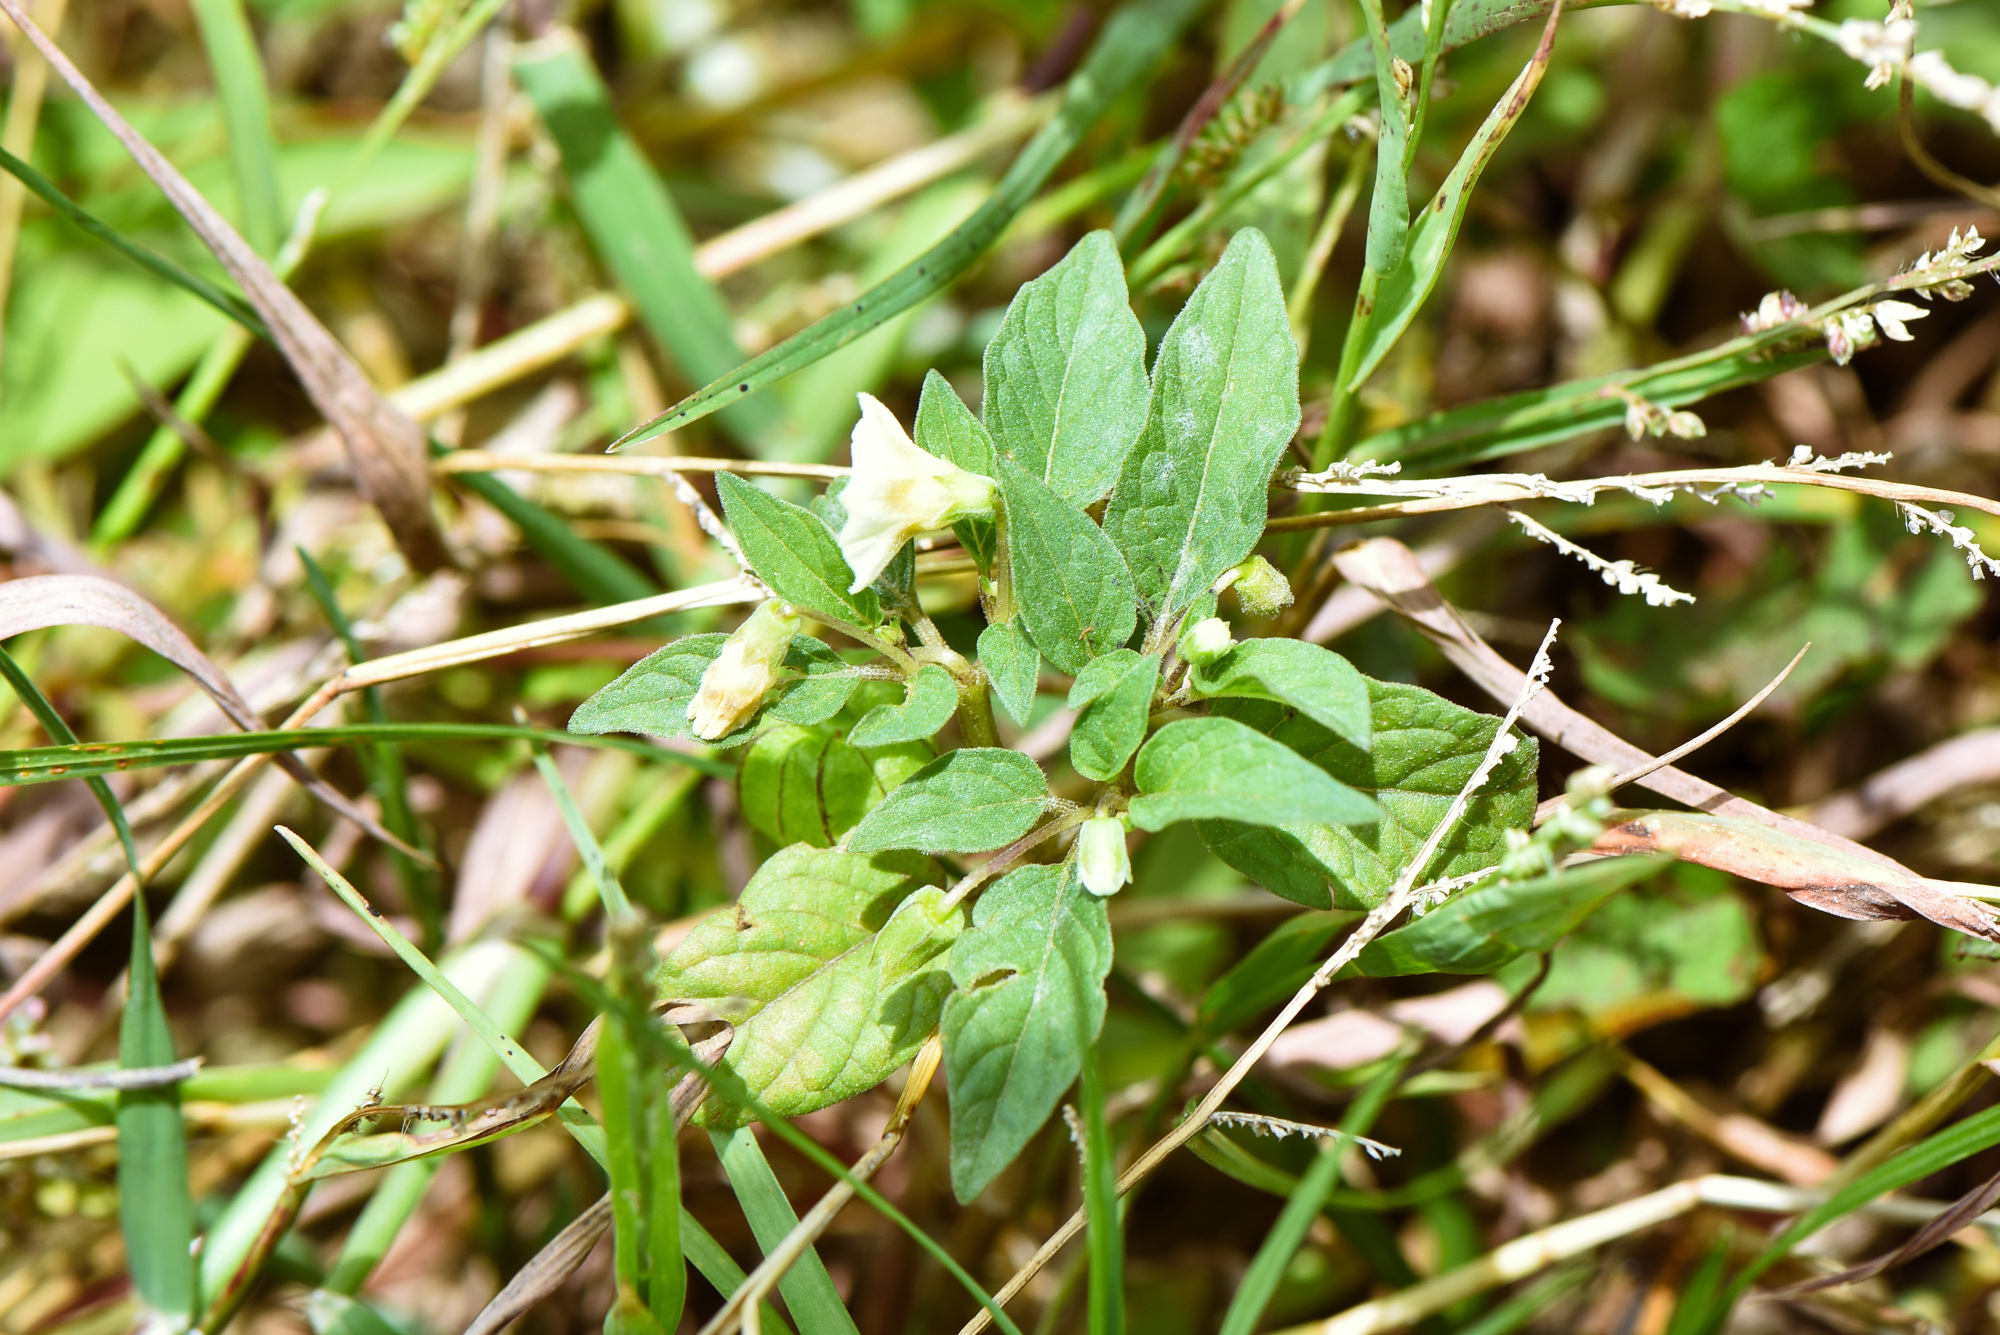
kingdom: Plantae
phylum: Tracheophyta
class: Magnoliopsida
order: Solanales
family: Solanaceae
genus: Physalis
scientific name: Physalis angulata
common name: Angular winter-cherry
